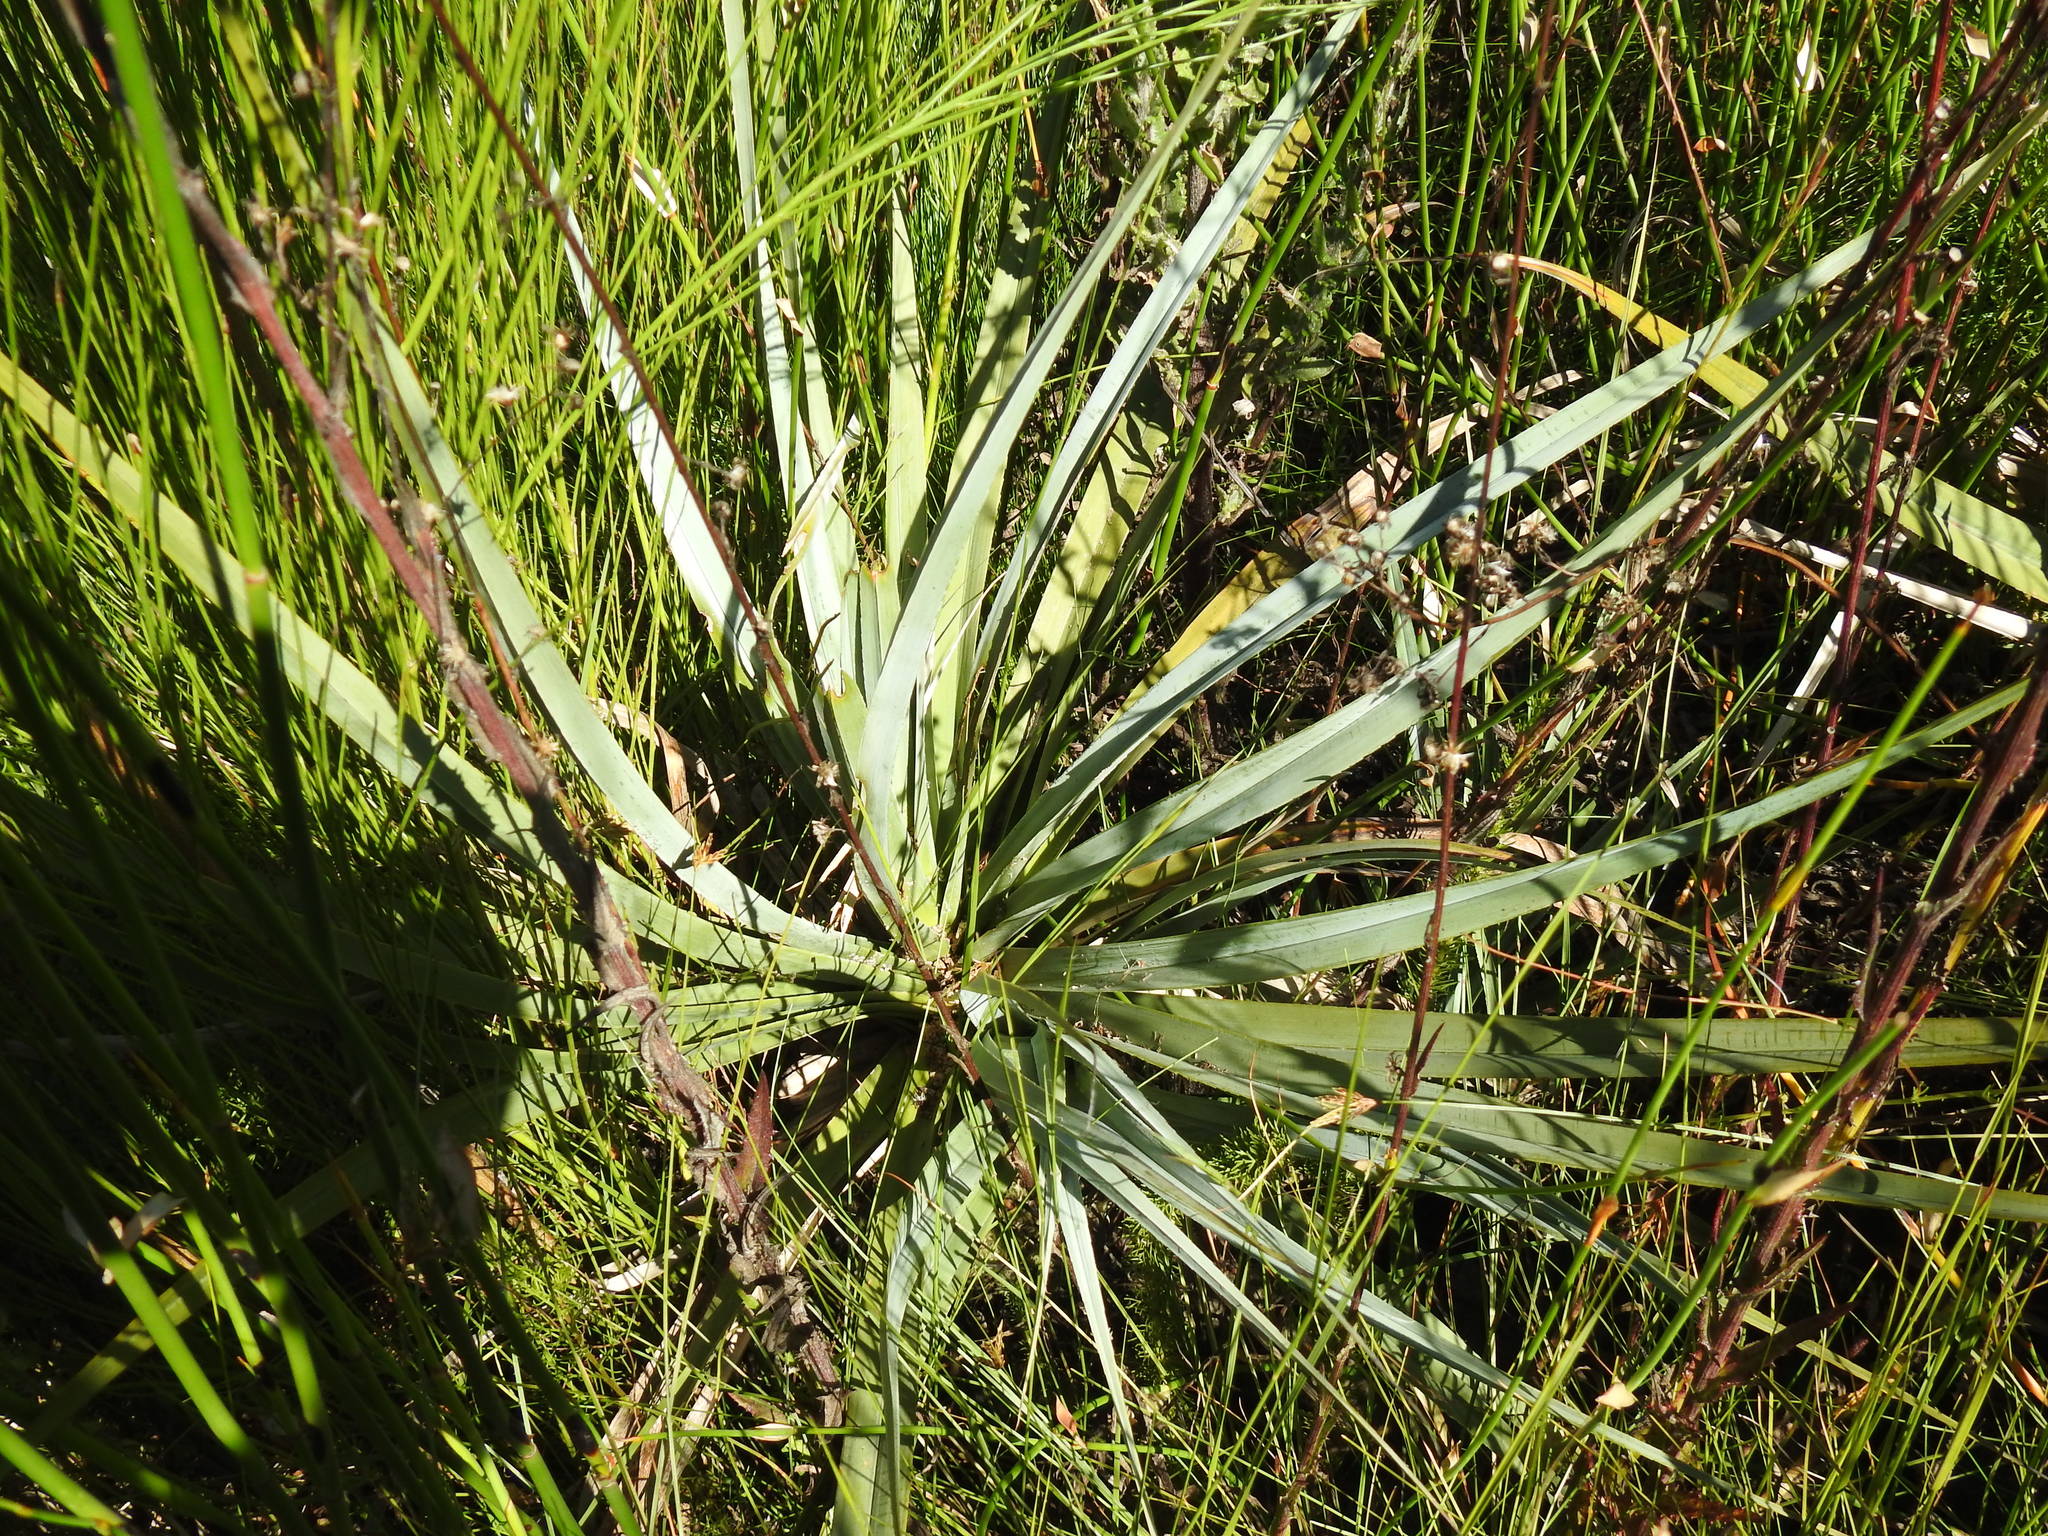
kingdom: Plantae
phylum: Tracheophyta
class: Liliopsida
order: Poales
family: Thurniaceae
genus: Prionium
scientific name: Prionium serratum
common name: Palmiet
